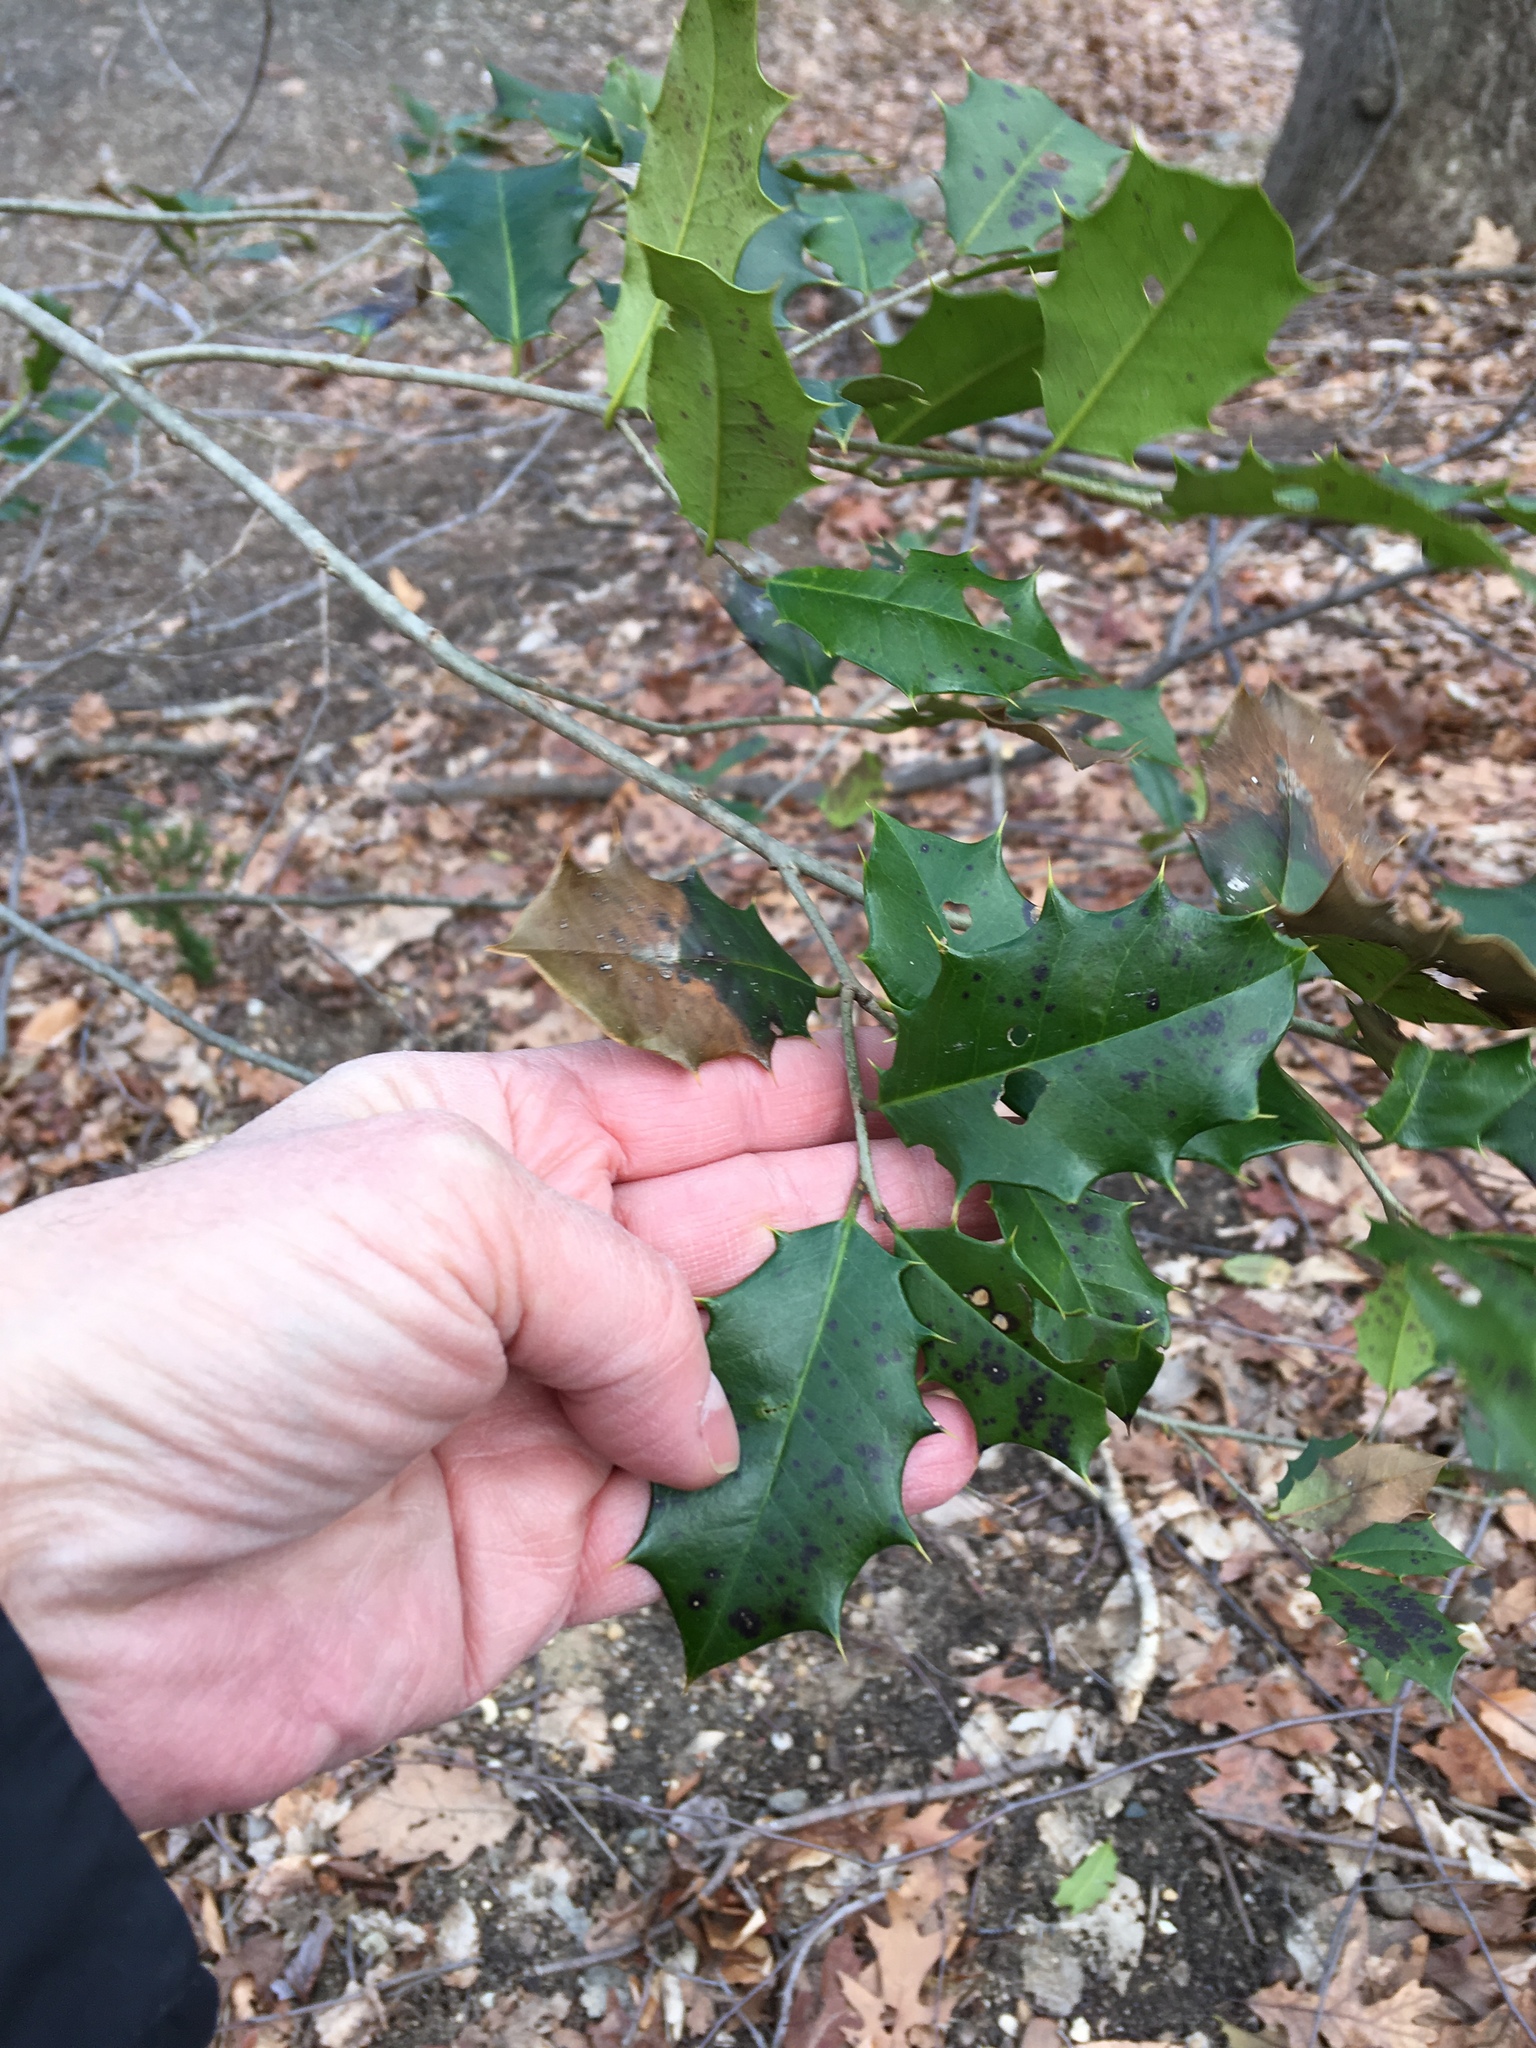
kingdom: Plantae
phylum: Tracheophyta
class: Magnoliopsida
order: Aquifoliales
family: Aquifoliaceae
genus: Ilex
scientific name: Ilex opaca
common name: American holly
